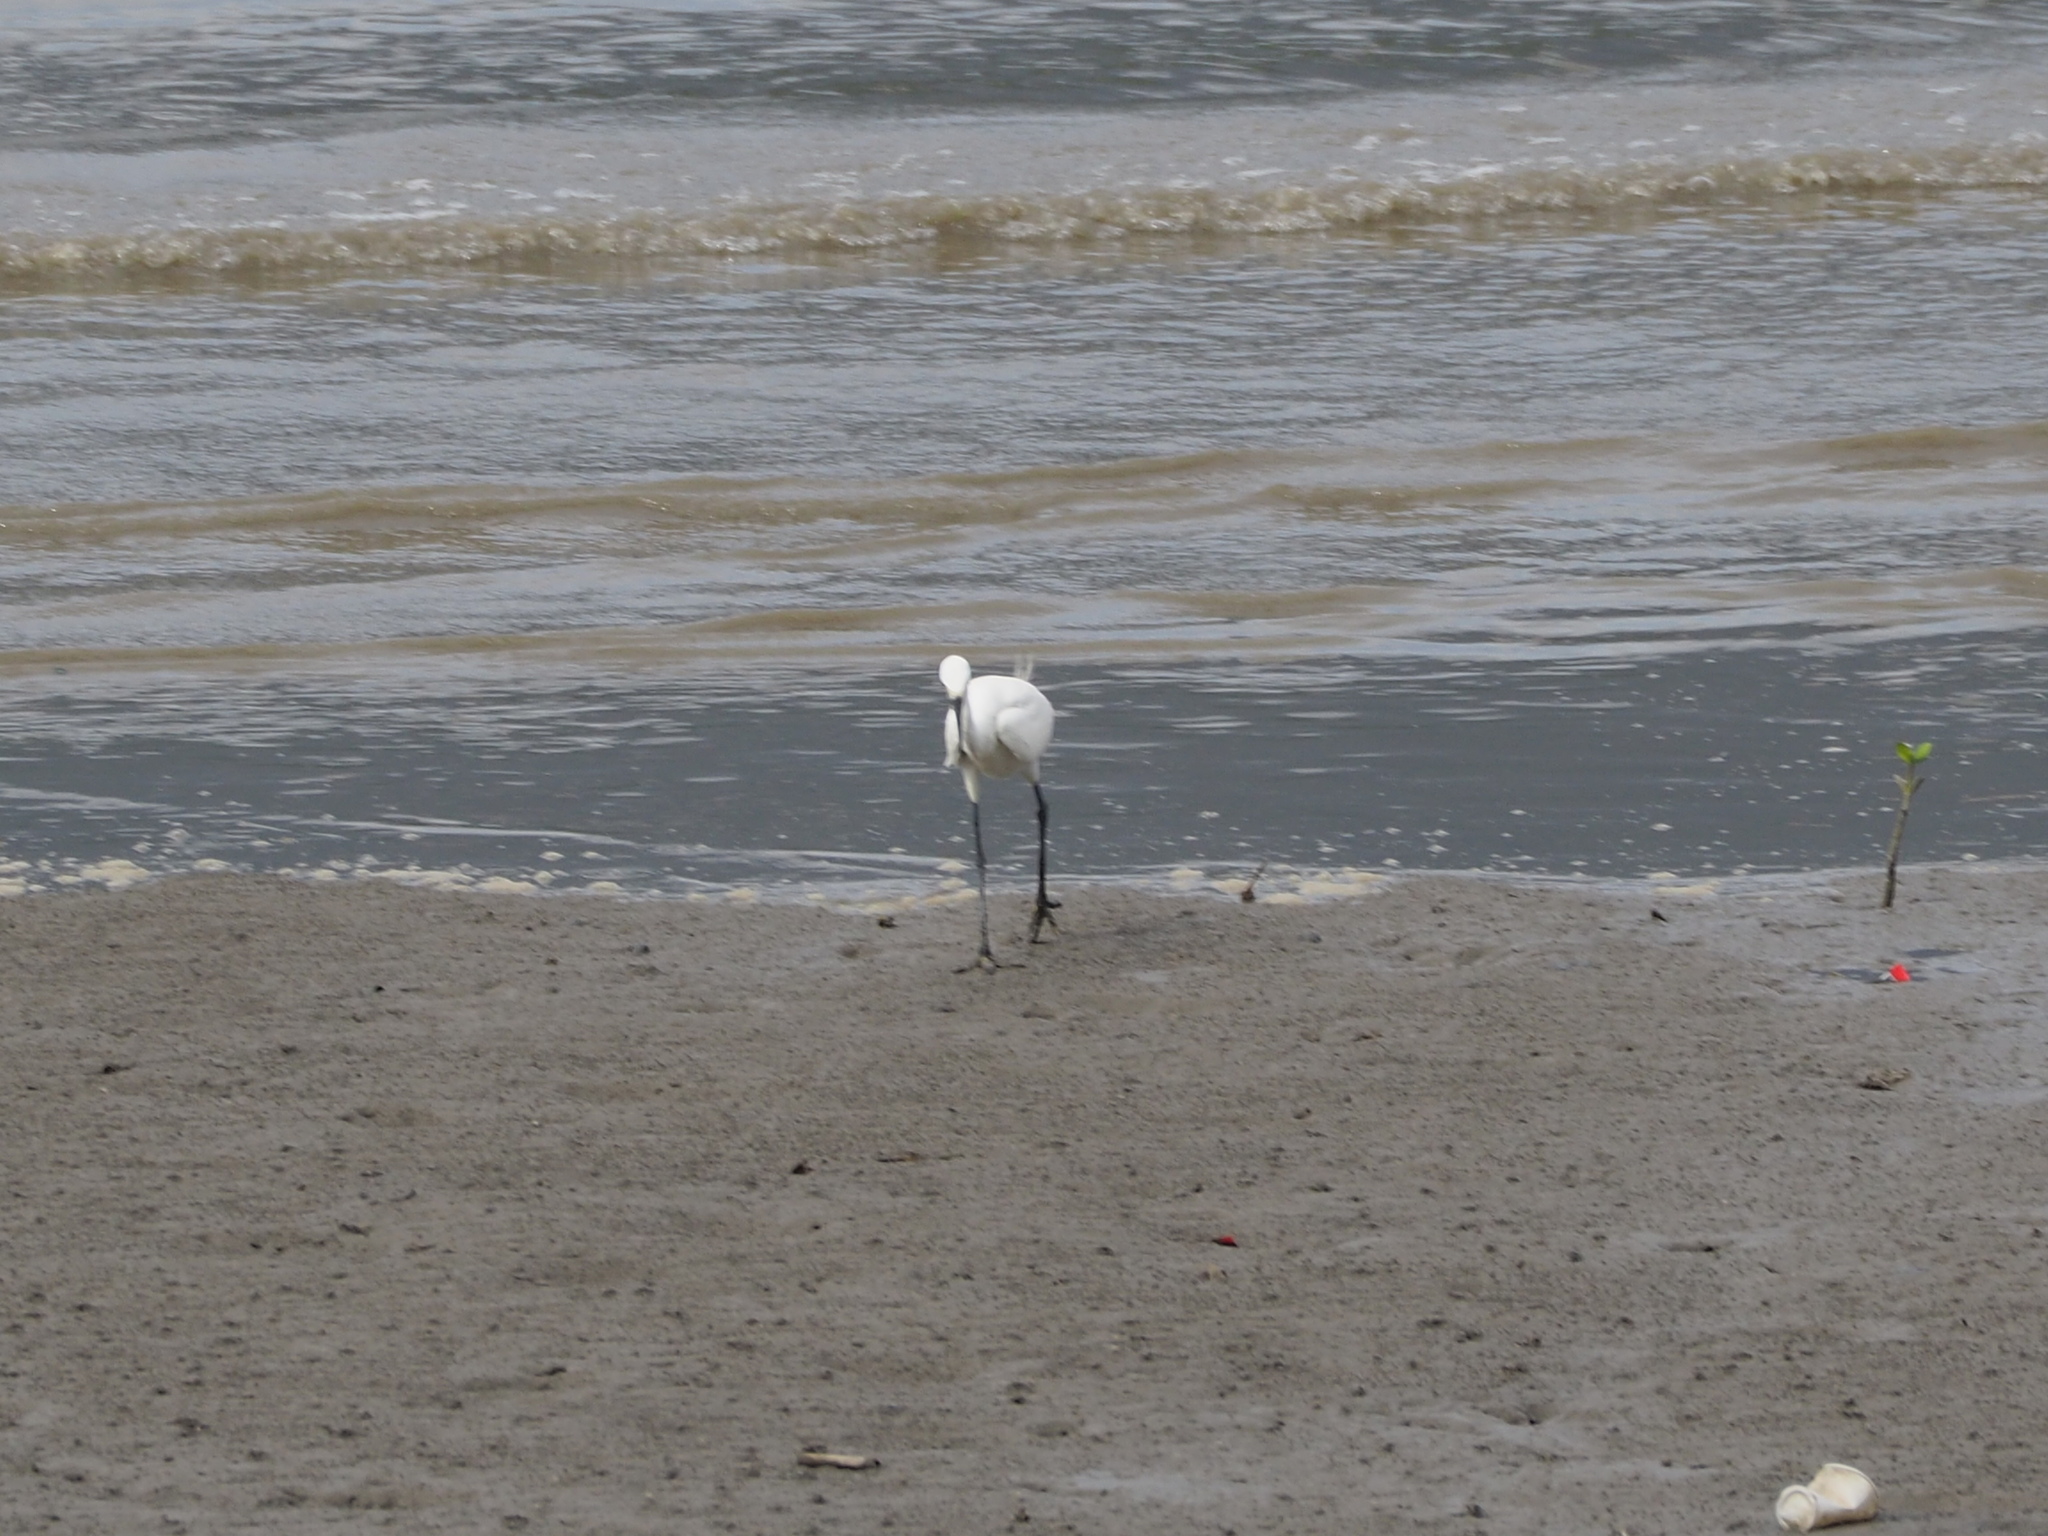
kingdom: Animalia
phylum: Chordata
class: Aves
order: Pelecaniformes
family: Ardeidae
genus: Egretta
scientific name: Egretta garzetta
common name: Little egret
